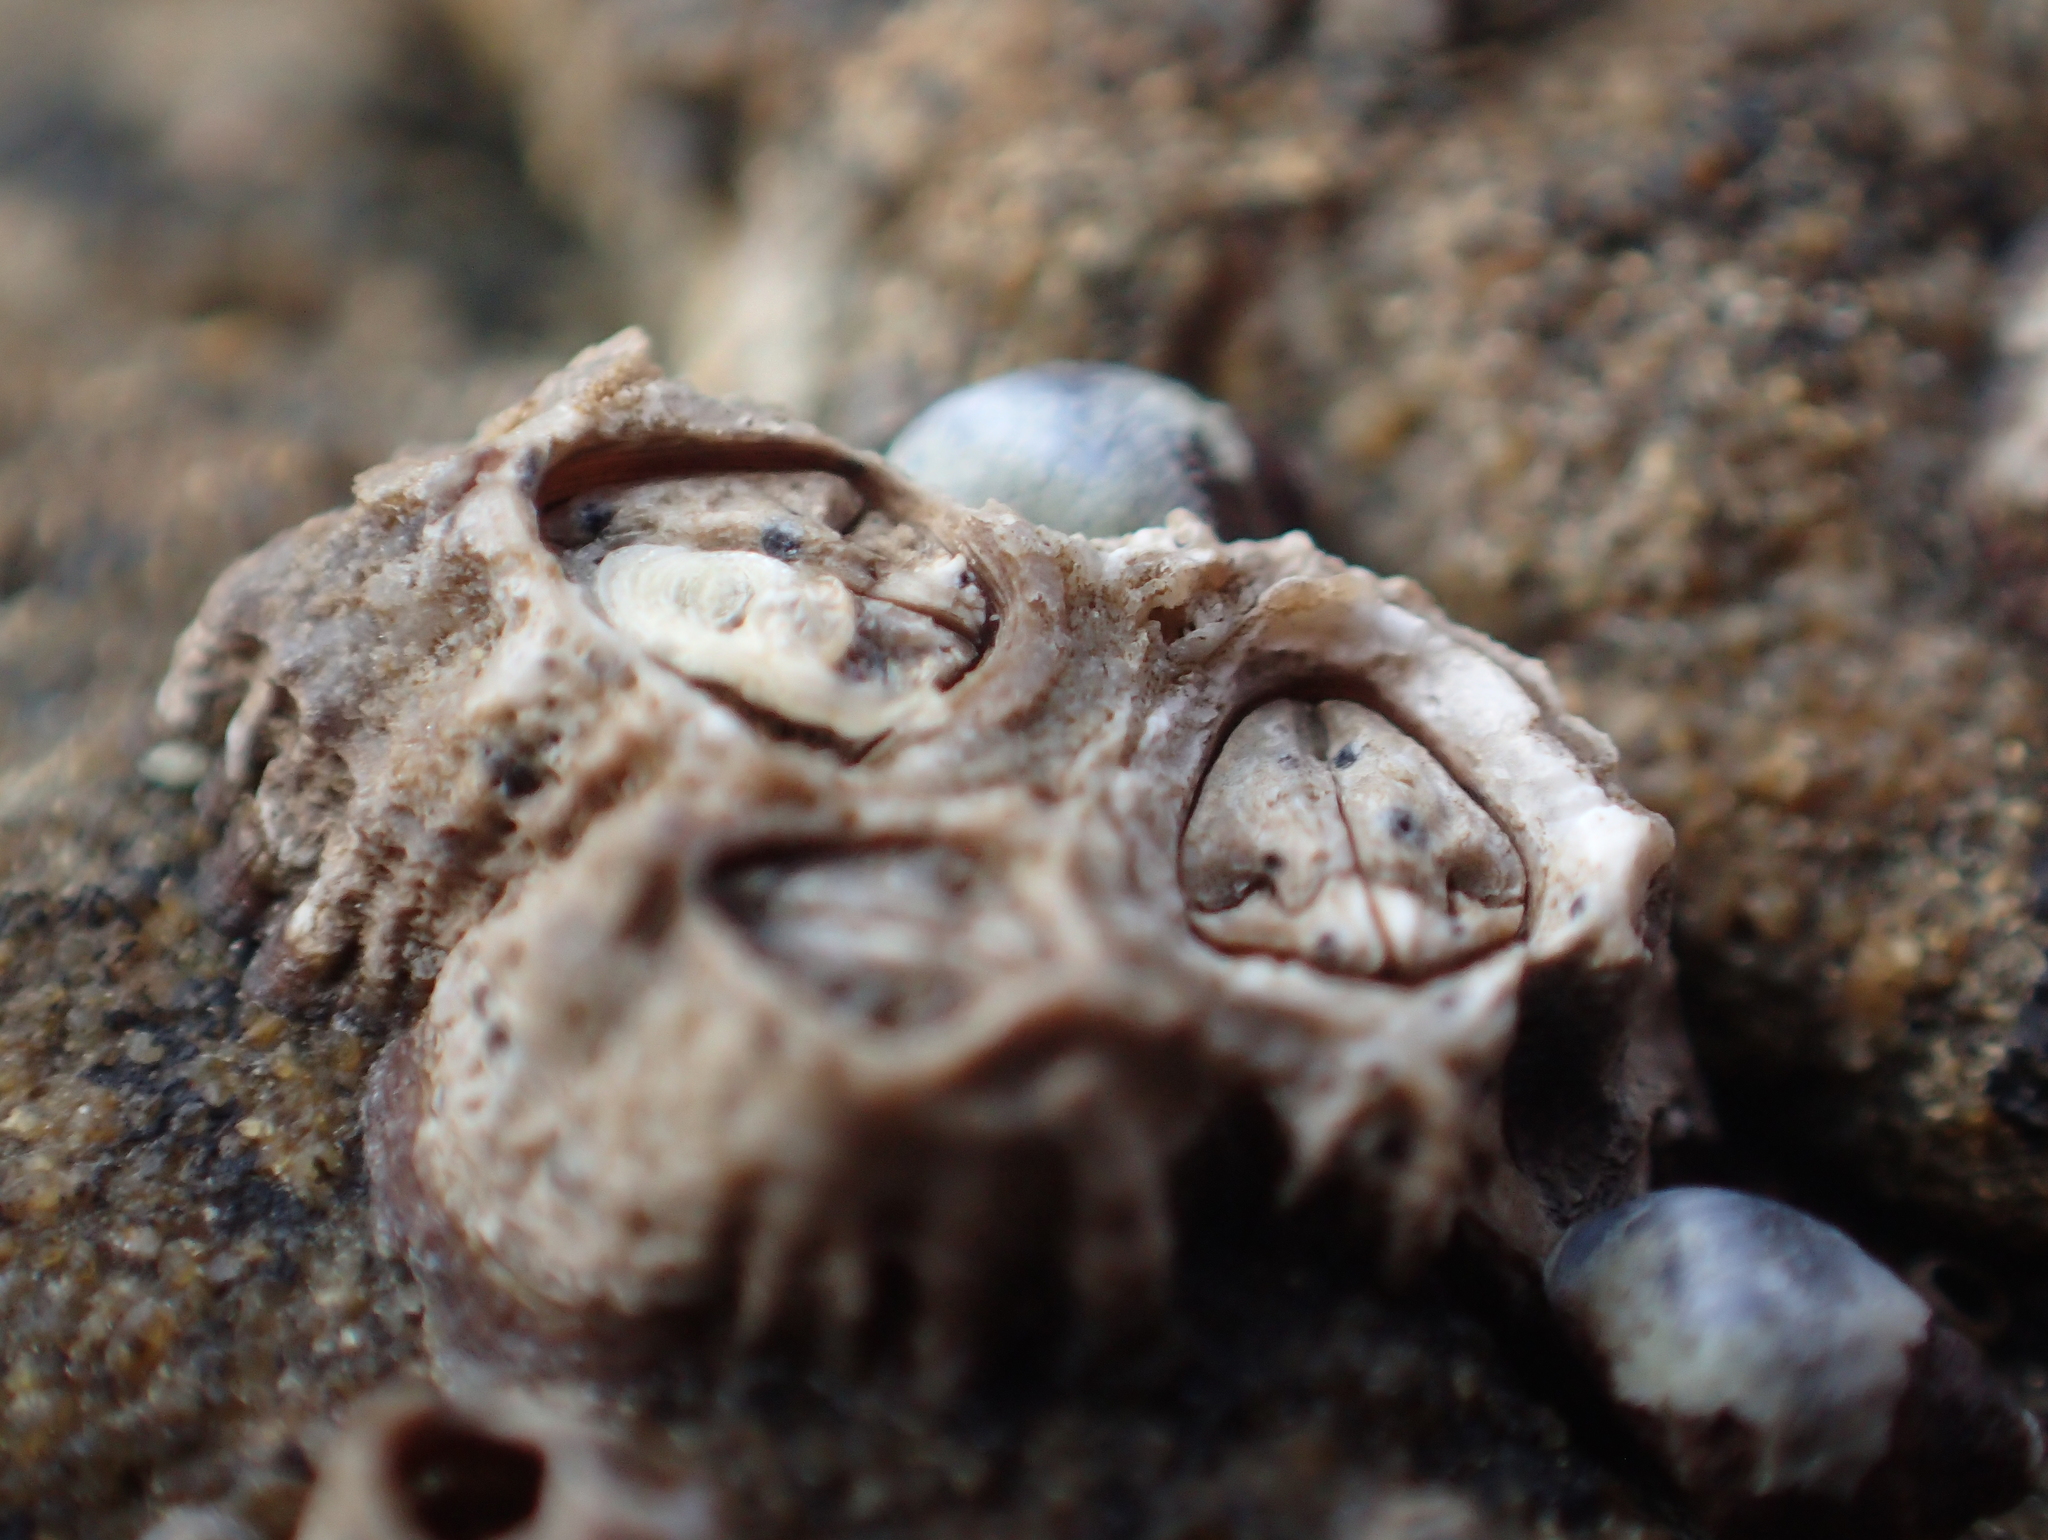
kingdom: Animalia
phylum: Arthropoda
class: Maxillopoda
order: Sessilia
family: Chthamalidae
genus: Chamaesipho
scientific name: Chamaesipho columna
